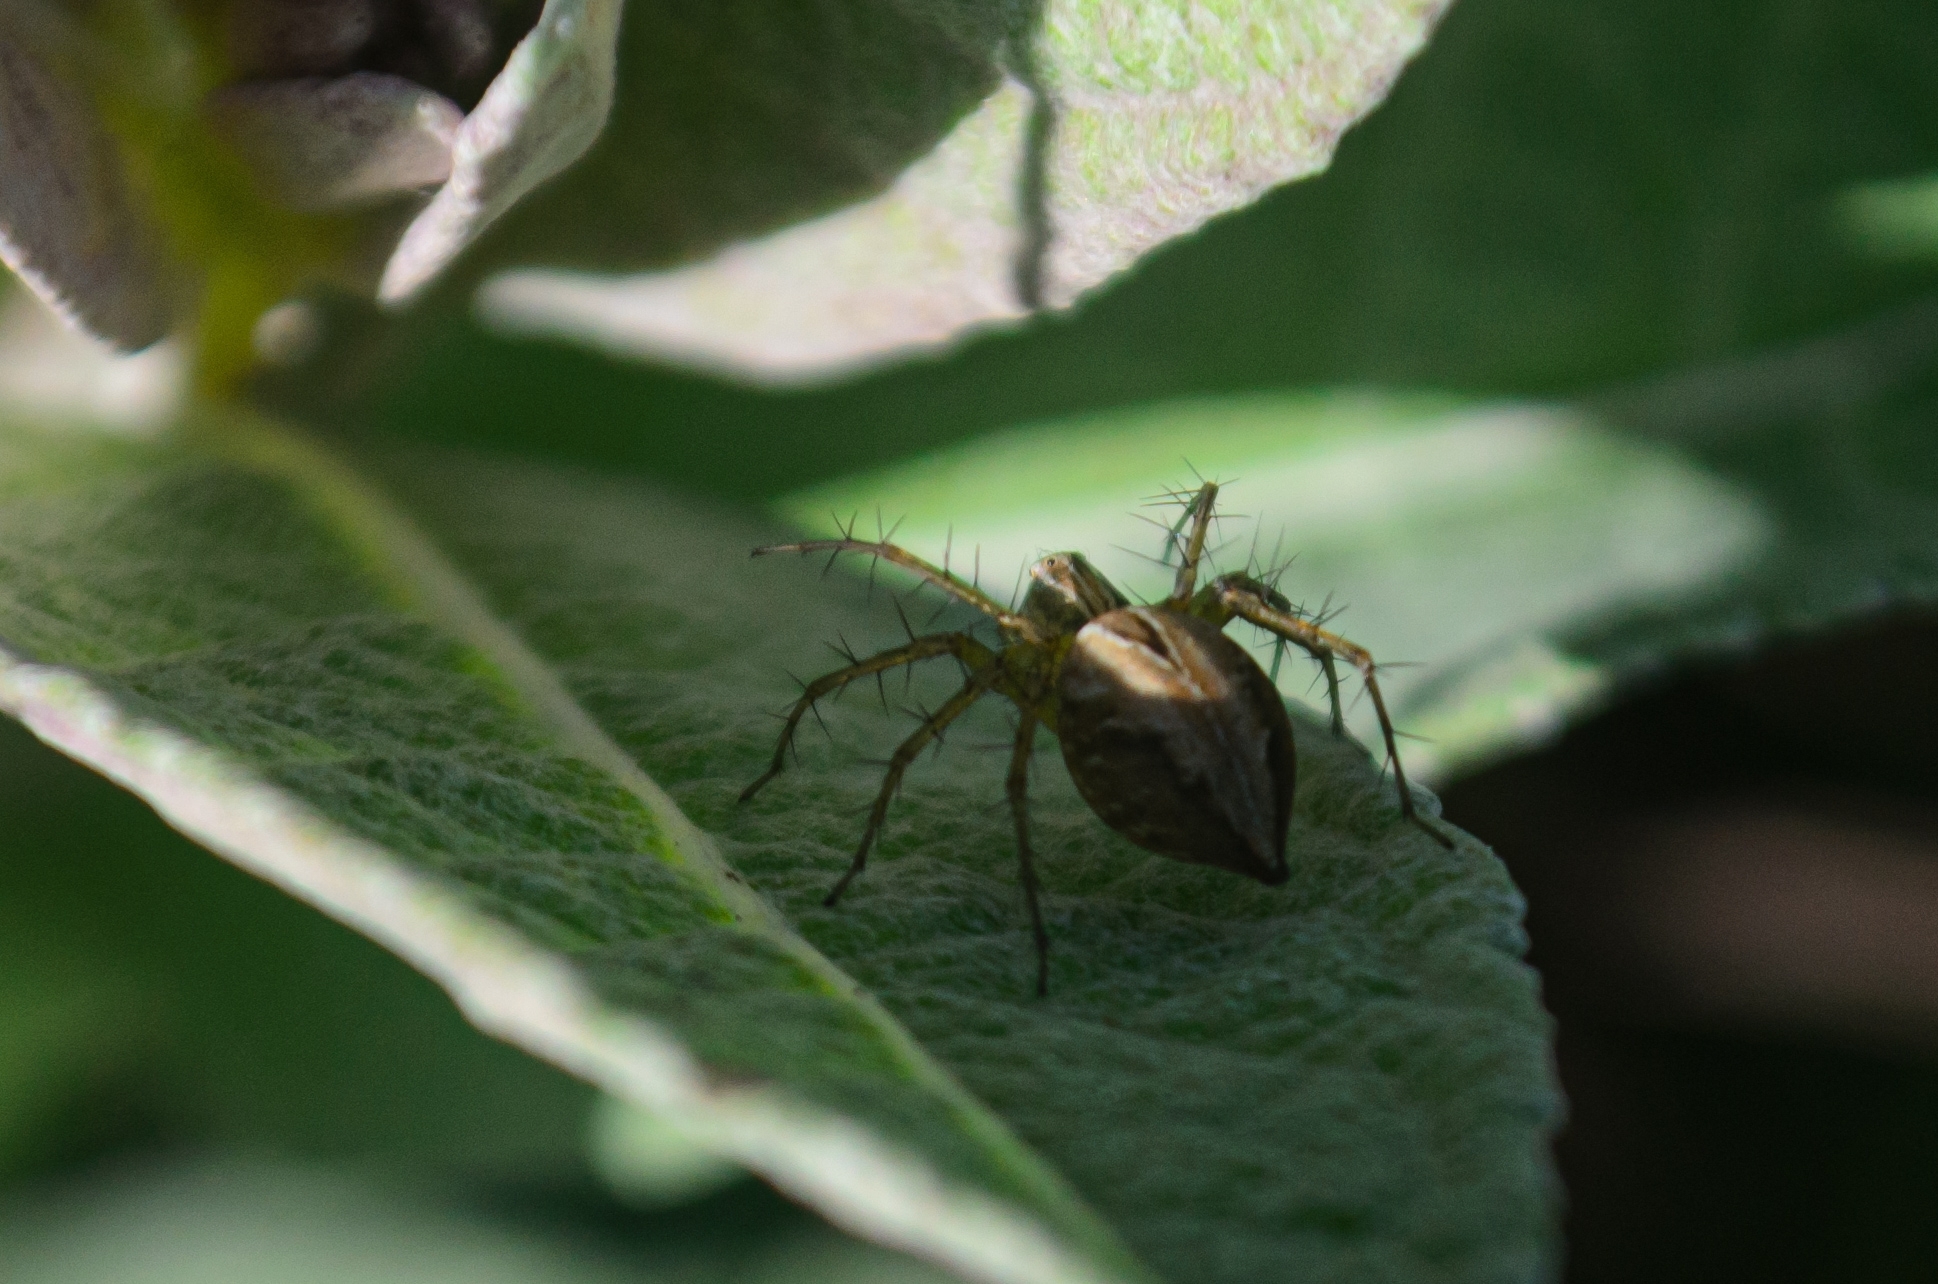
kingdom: Animalia
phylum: Arthropoda
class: Arachnida
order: Araneae
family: Oxyopidae
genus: Oxyopes
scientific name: Oxyopes salticus
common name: Lynx spiders
